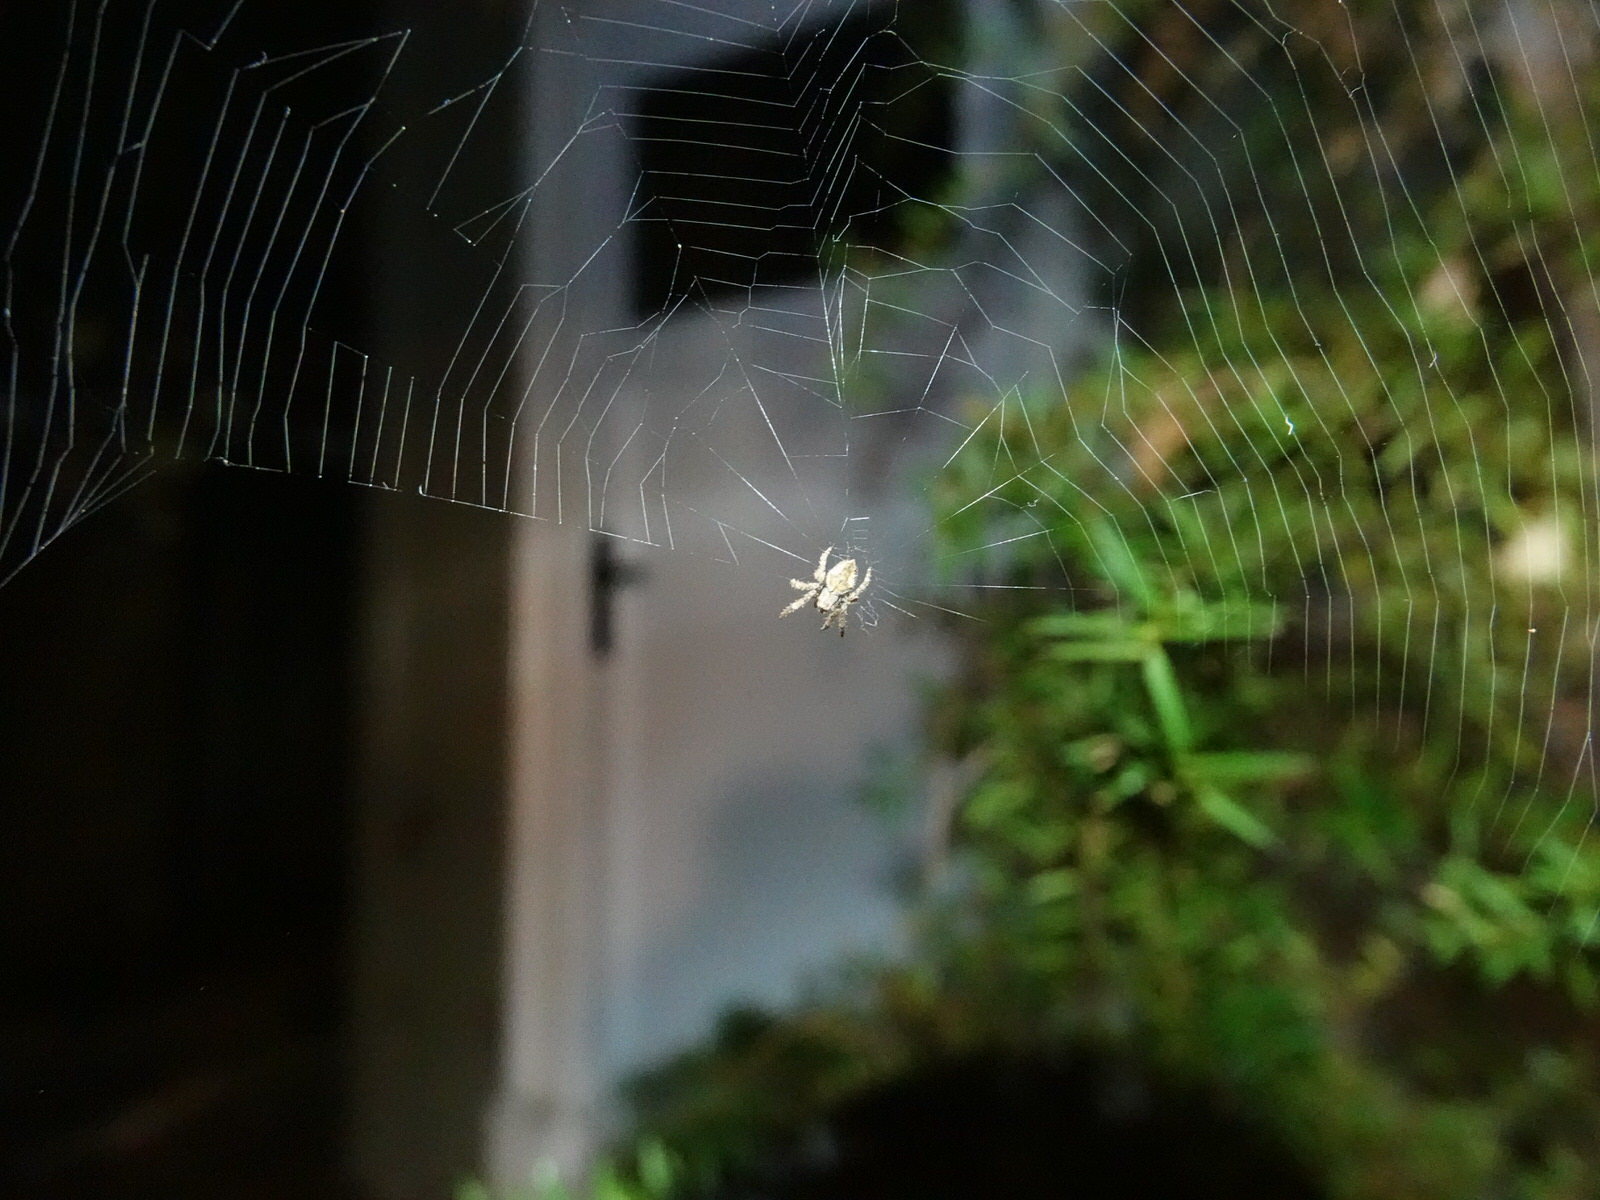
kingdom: Animalia
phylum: Arthropoda
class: Arachnida
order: Araneae
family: Araneidae
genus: Eriophora
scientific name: Eriophora pustulosa
